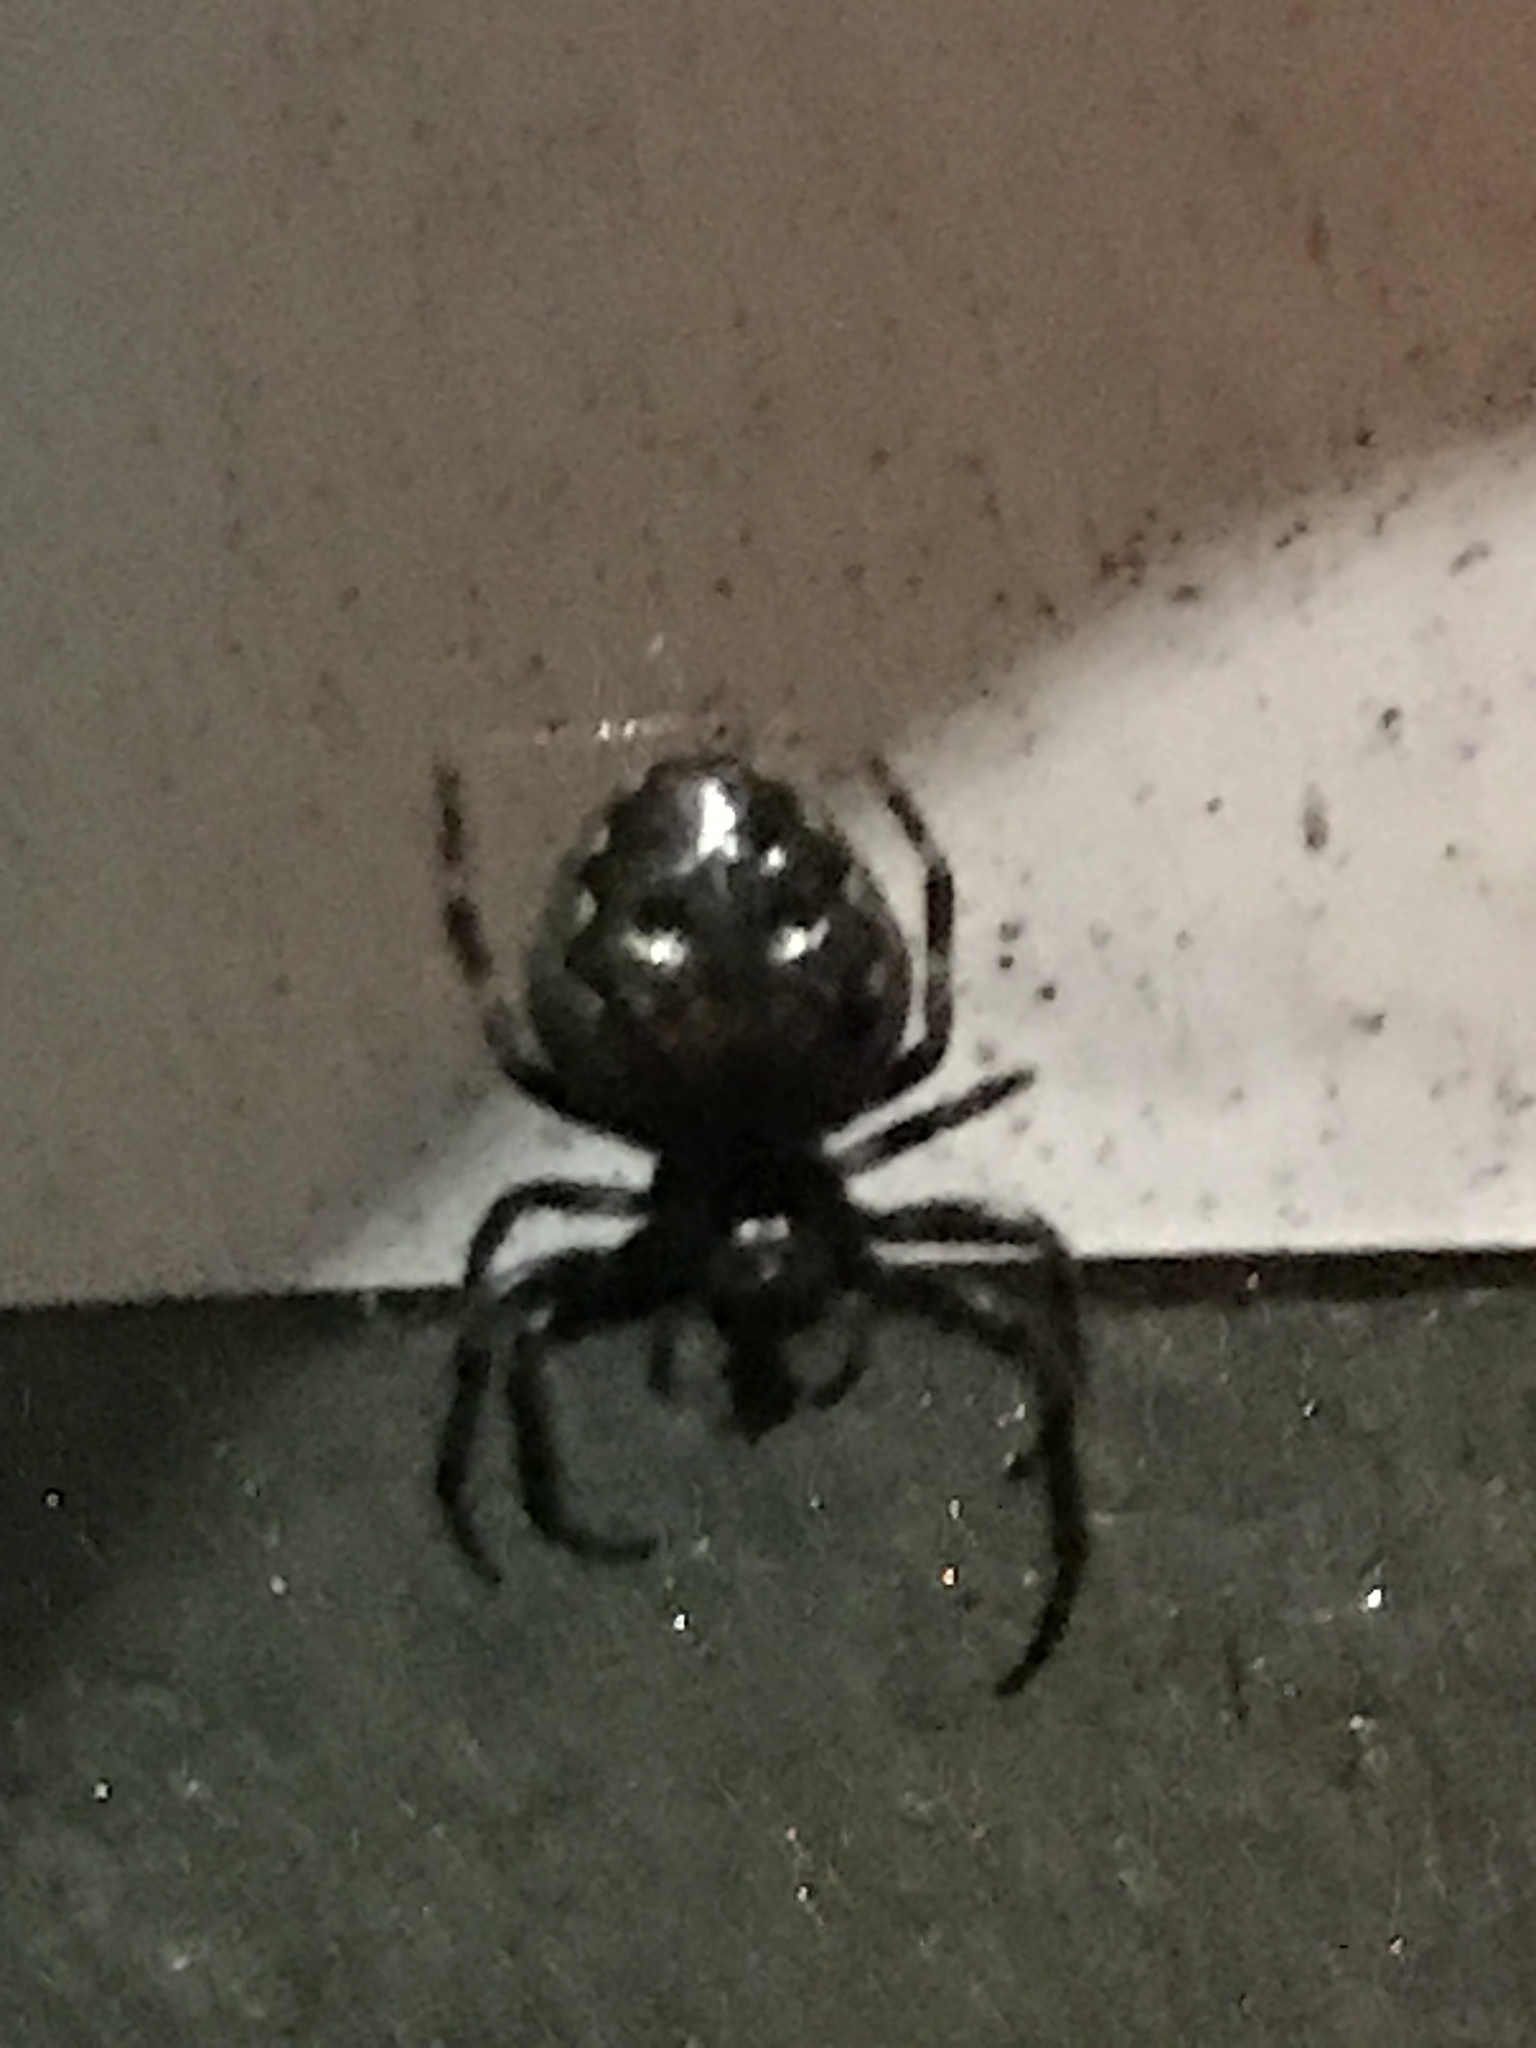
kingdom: Animalia
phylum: Arthropoda
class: Arachnida
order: Araneae
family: Araneidae
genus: Nuctenea
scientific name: Nuctenea umbratica
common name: Toad spider
